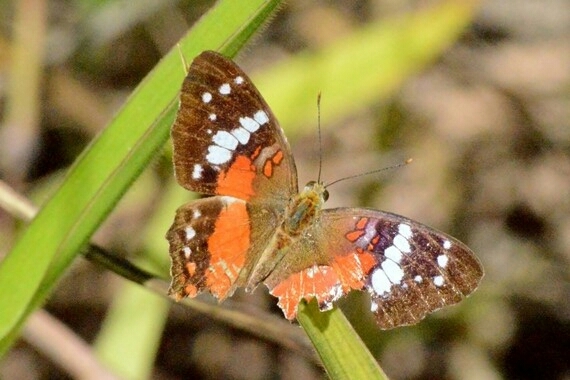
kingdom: Animalia
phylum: Arthropoda
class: Insecta
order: Lepidoptera
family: Nymphalidae
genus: Anartia
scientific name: Anartia amathea
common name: Red peacock
